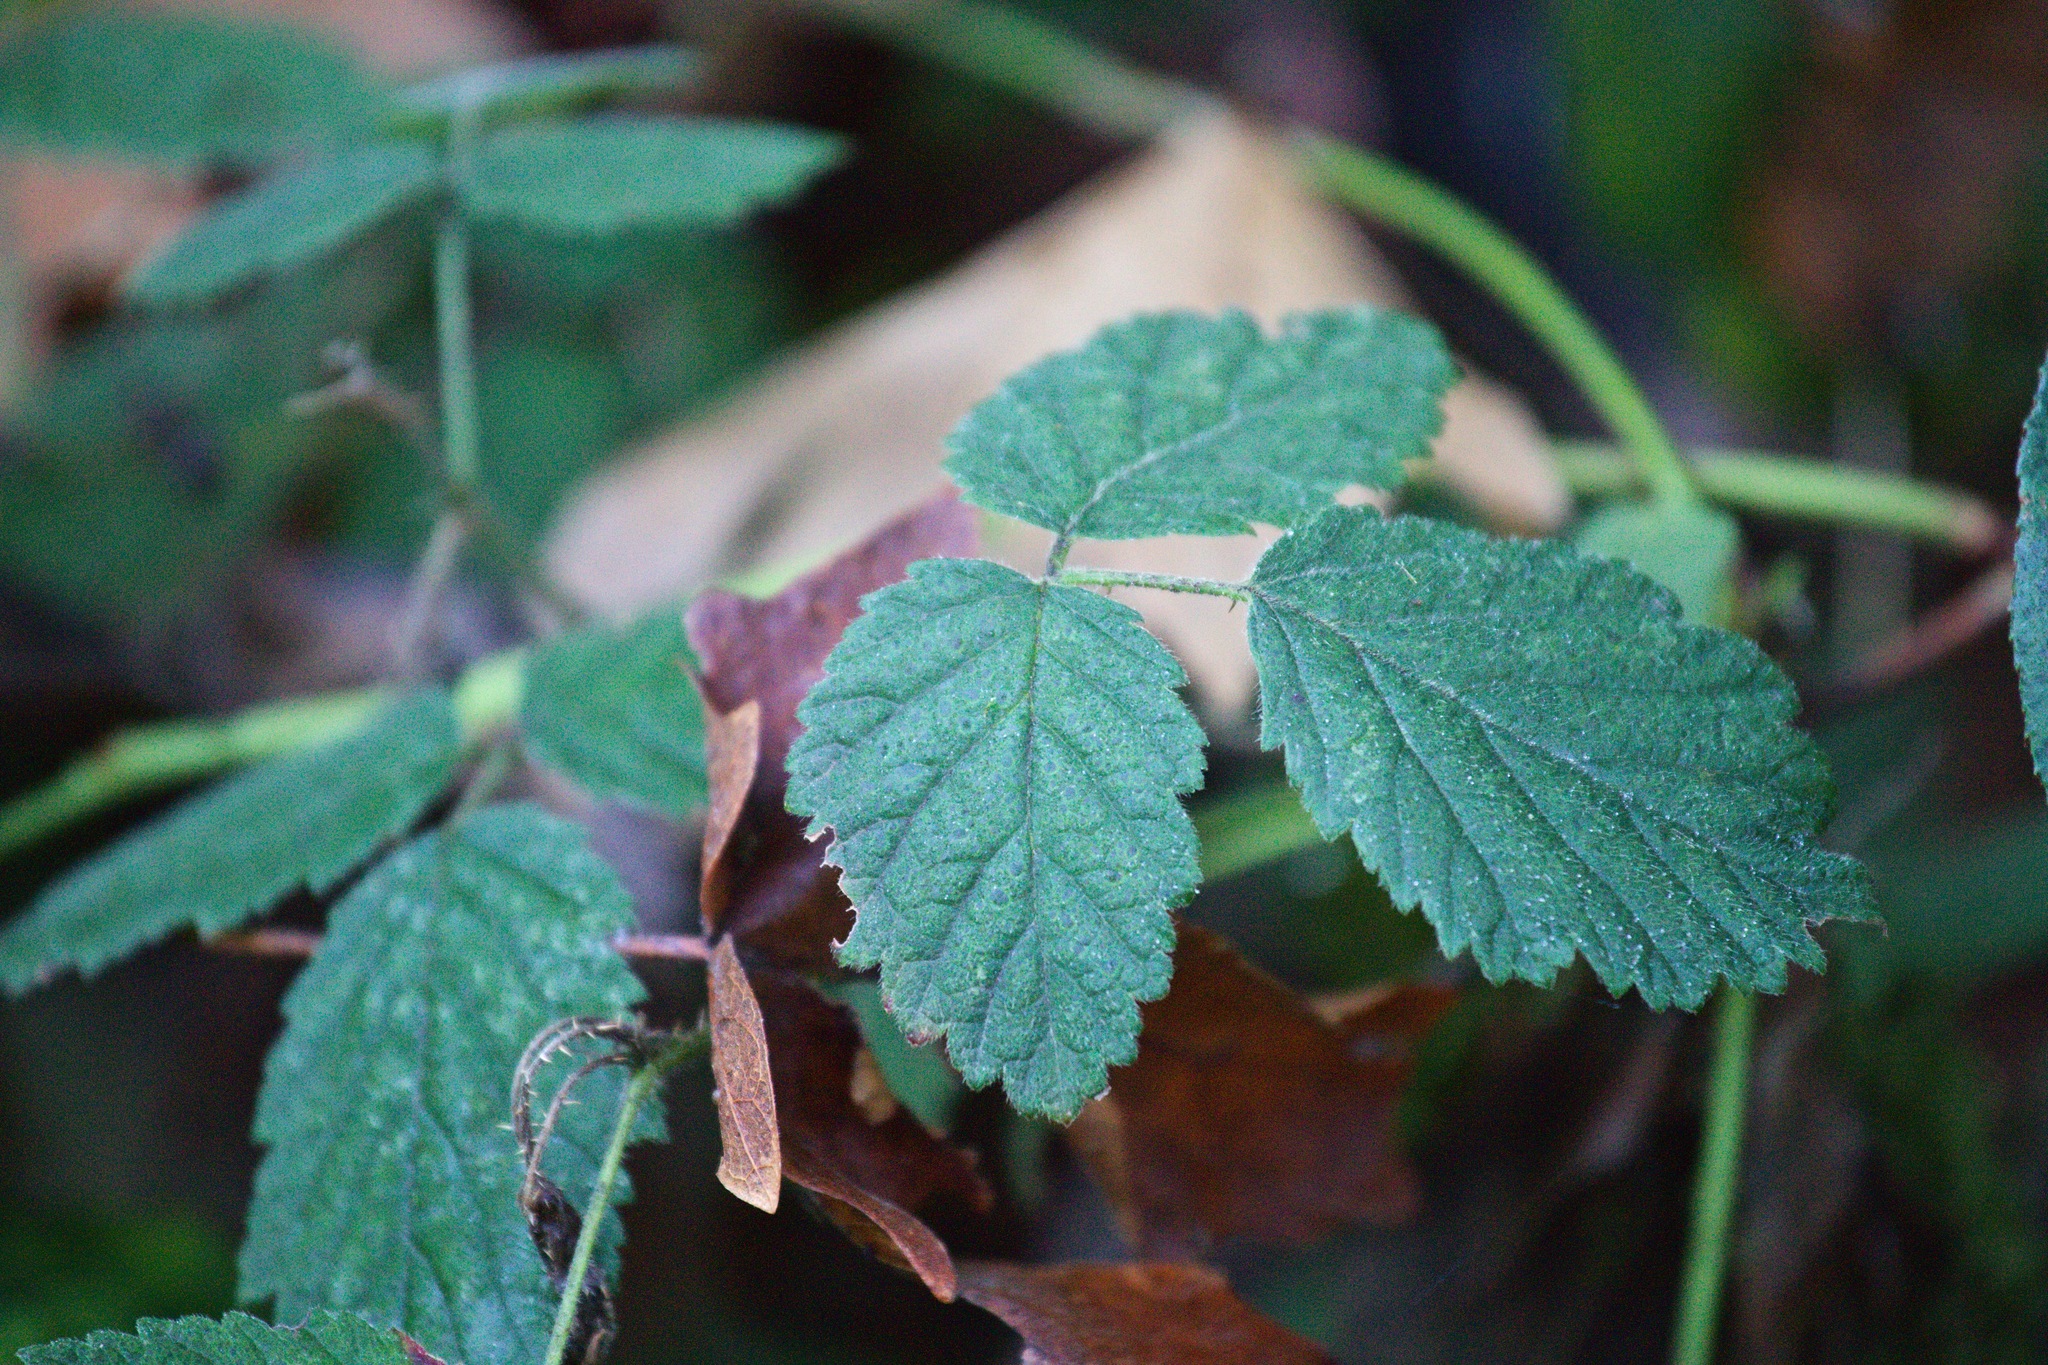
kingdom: Plantae
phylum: Tracheophyta
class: Magnoliopsida
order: Rosales
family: Rosaceae
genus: Rubus
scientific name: Rubus ursinus
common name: Pacific blackberry
